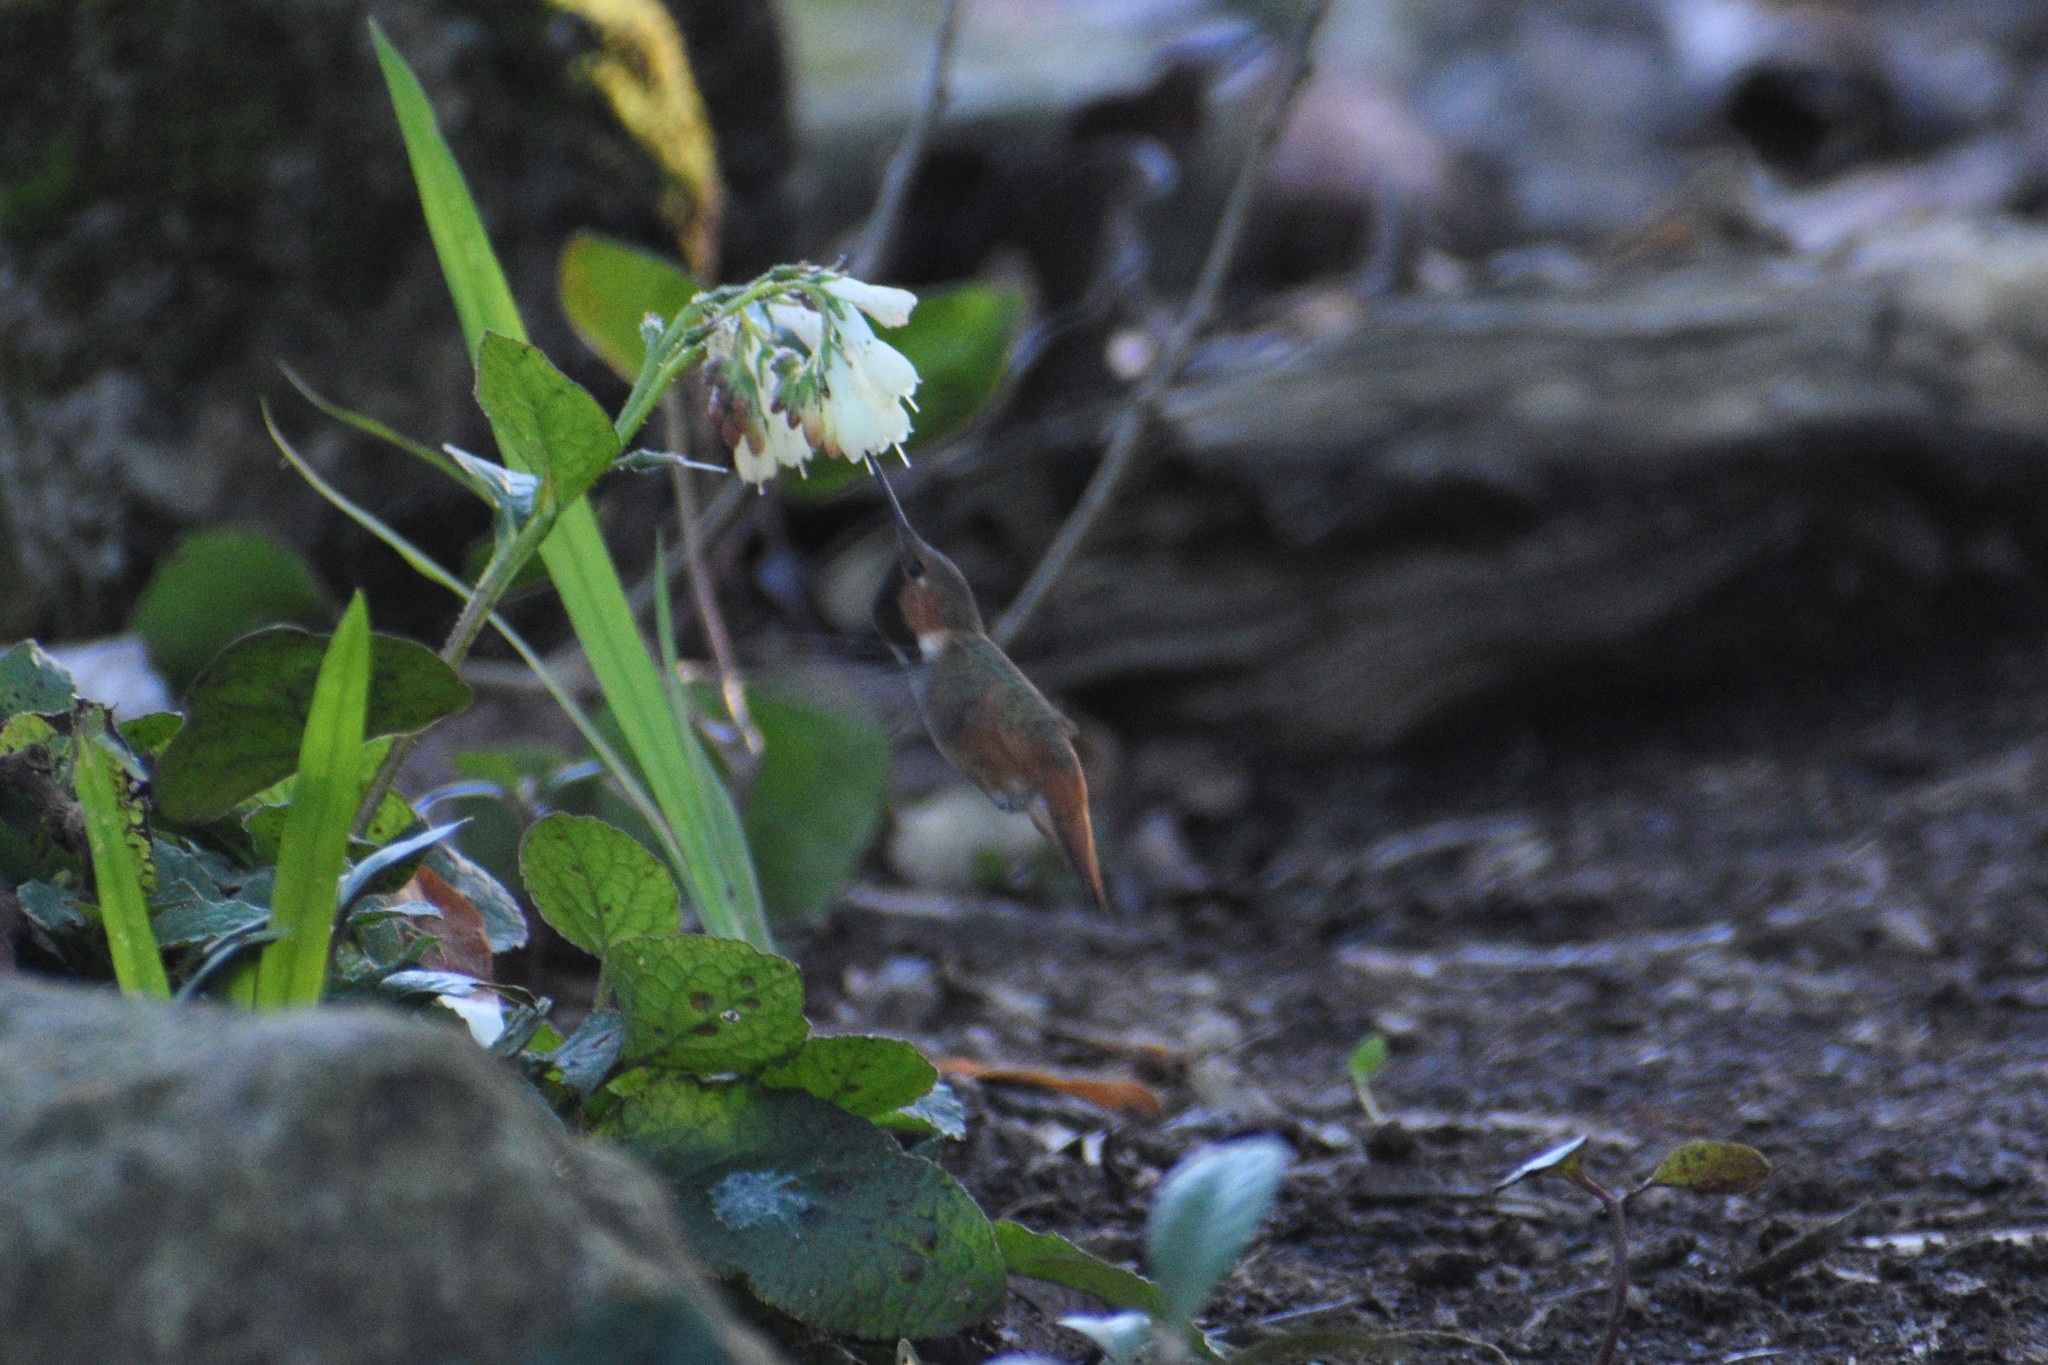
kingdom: Animalia
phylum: Chordata
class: Aves
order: Apodiformes
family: Trochilidae
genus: Selasphorus
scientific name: Selasphorus sasin
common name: Allen's hummingbird
